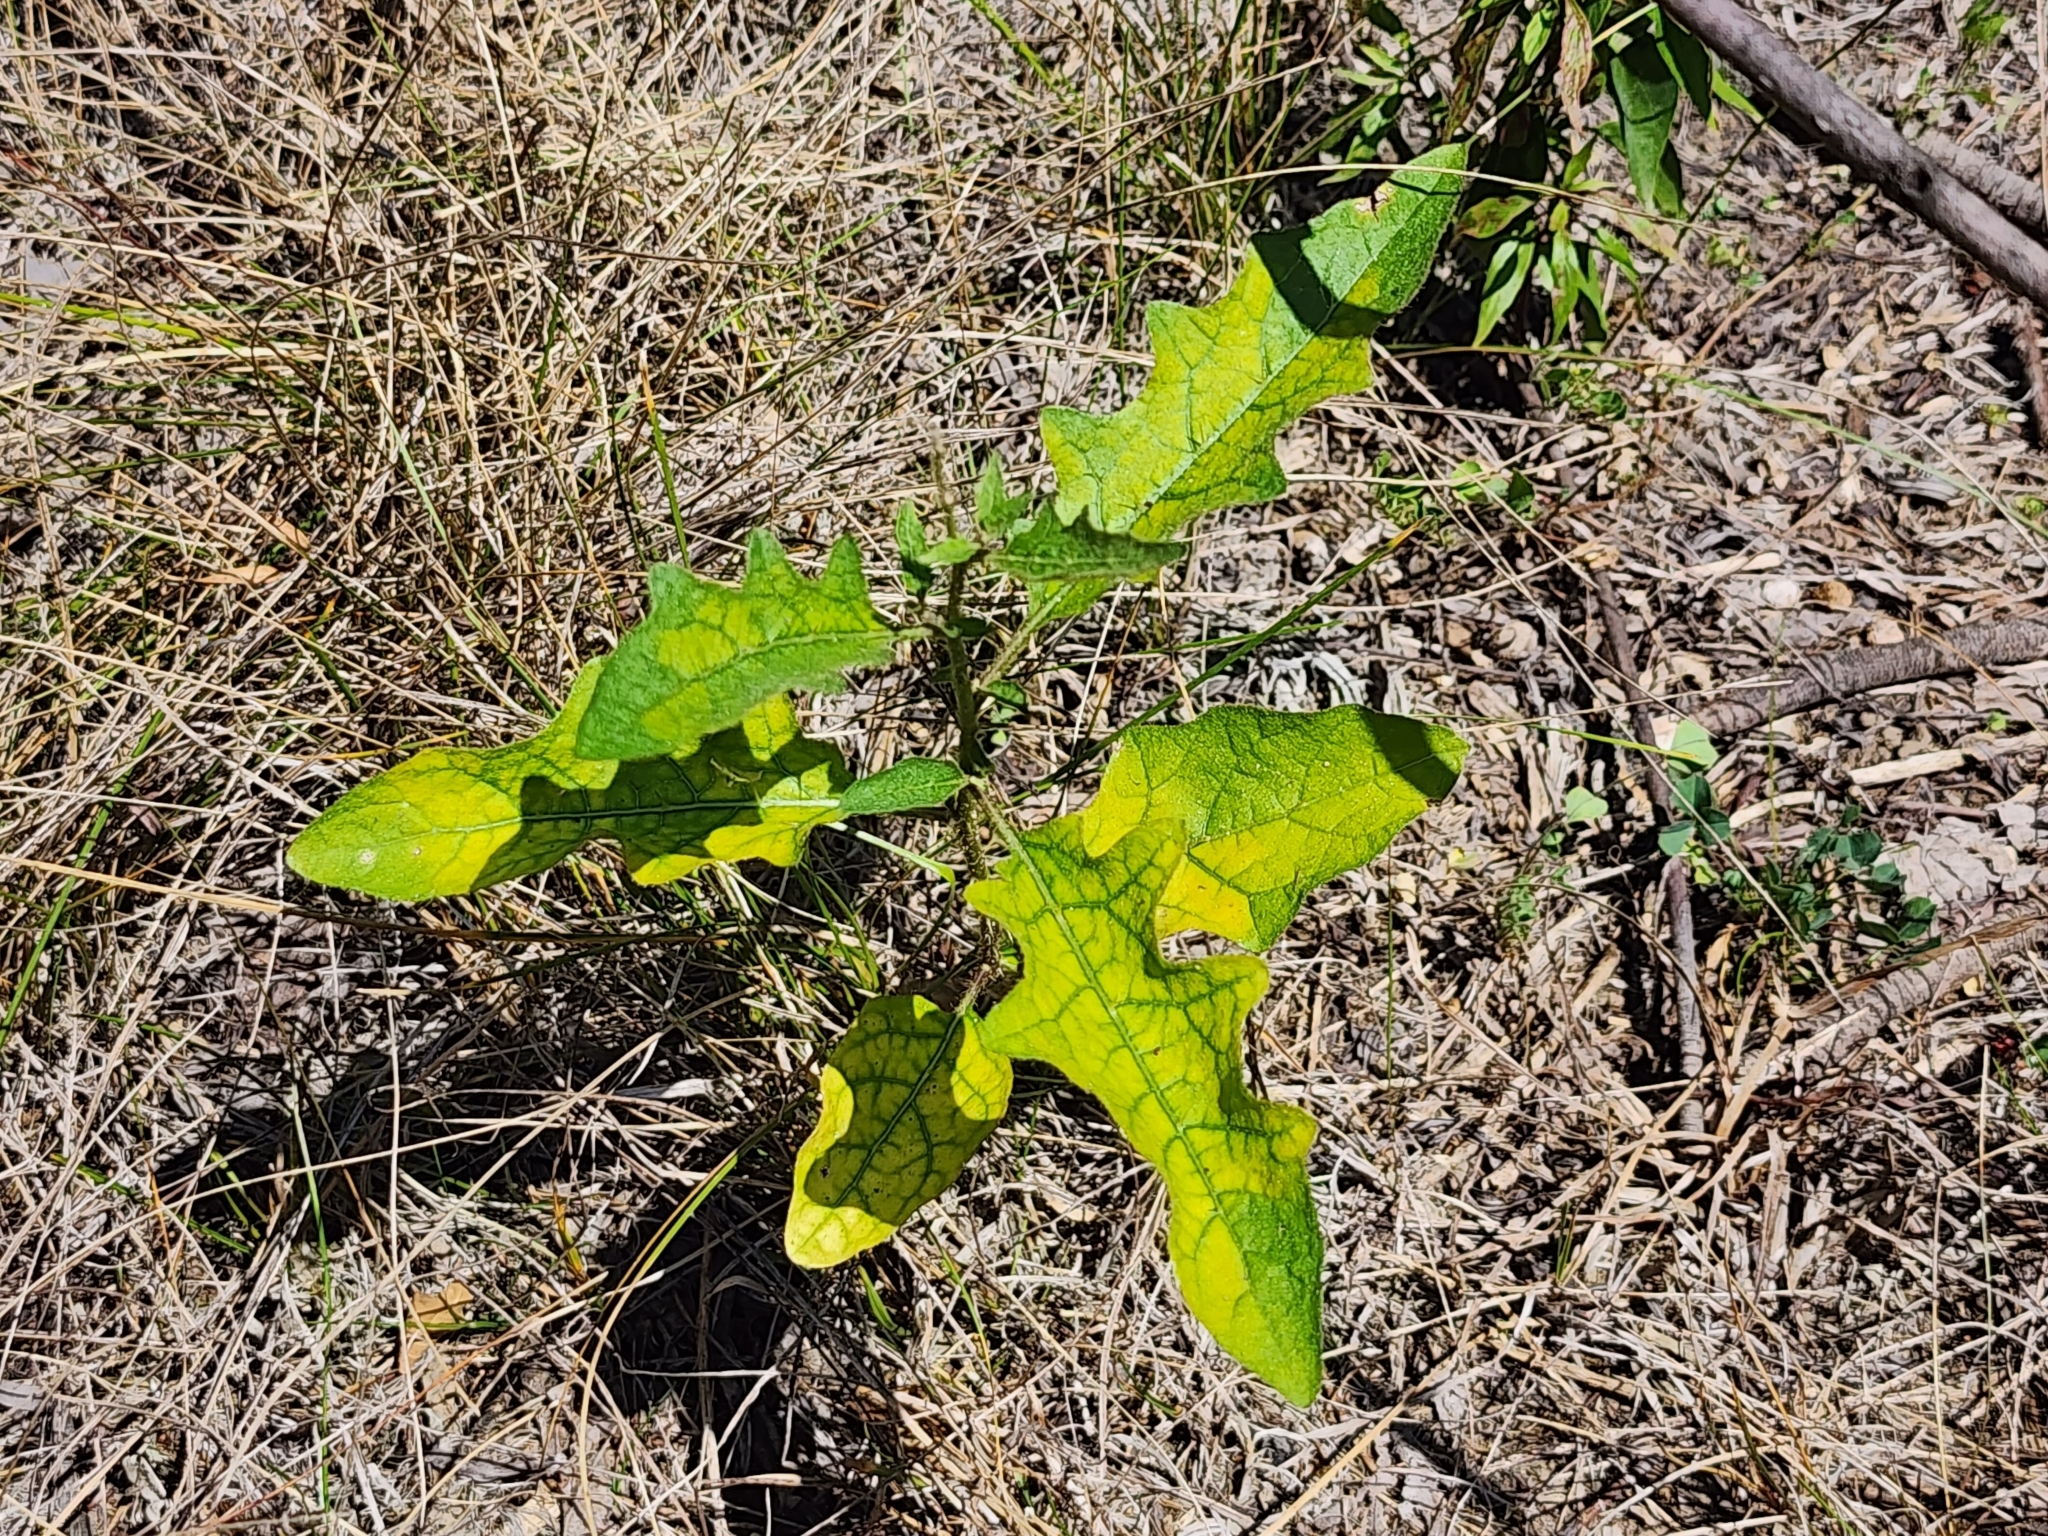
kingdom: Plantae
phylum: Tracheophyta
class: Magnoliopsida
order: Solanales
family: Solanaceae
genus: Solanum
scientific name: Solanum carolinense
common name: Horse-nettle
